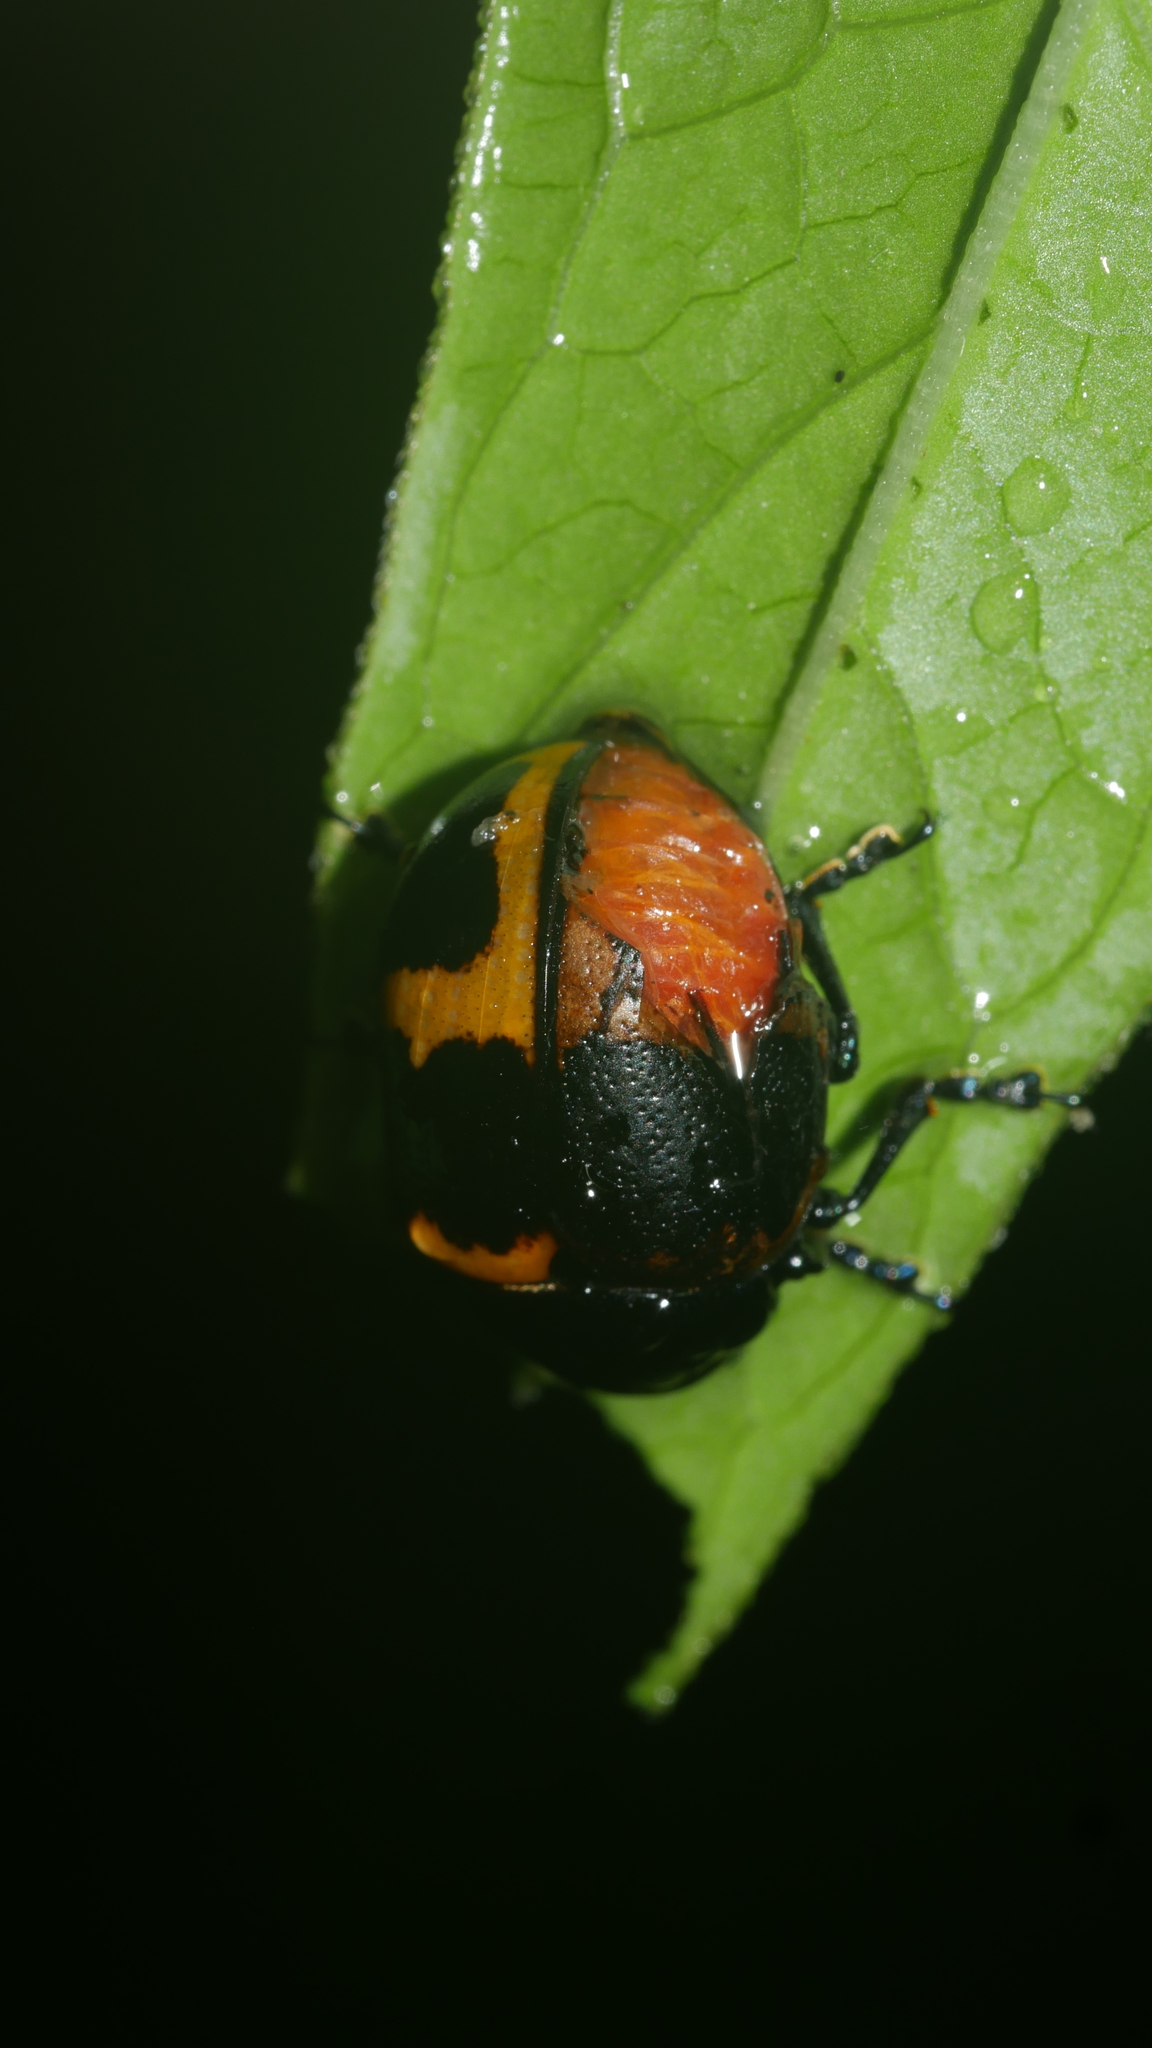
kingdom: Animalia
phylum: Arthropoda
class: Insecta
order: Coleoptera
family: Chrysomelidae
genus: Labidomera
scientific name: Labidomera clivicollis
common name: Swamp milkweed leaf beetle
